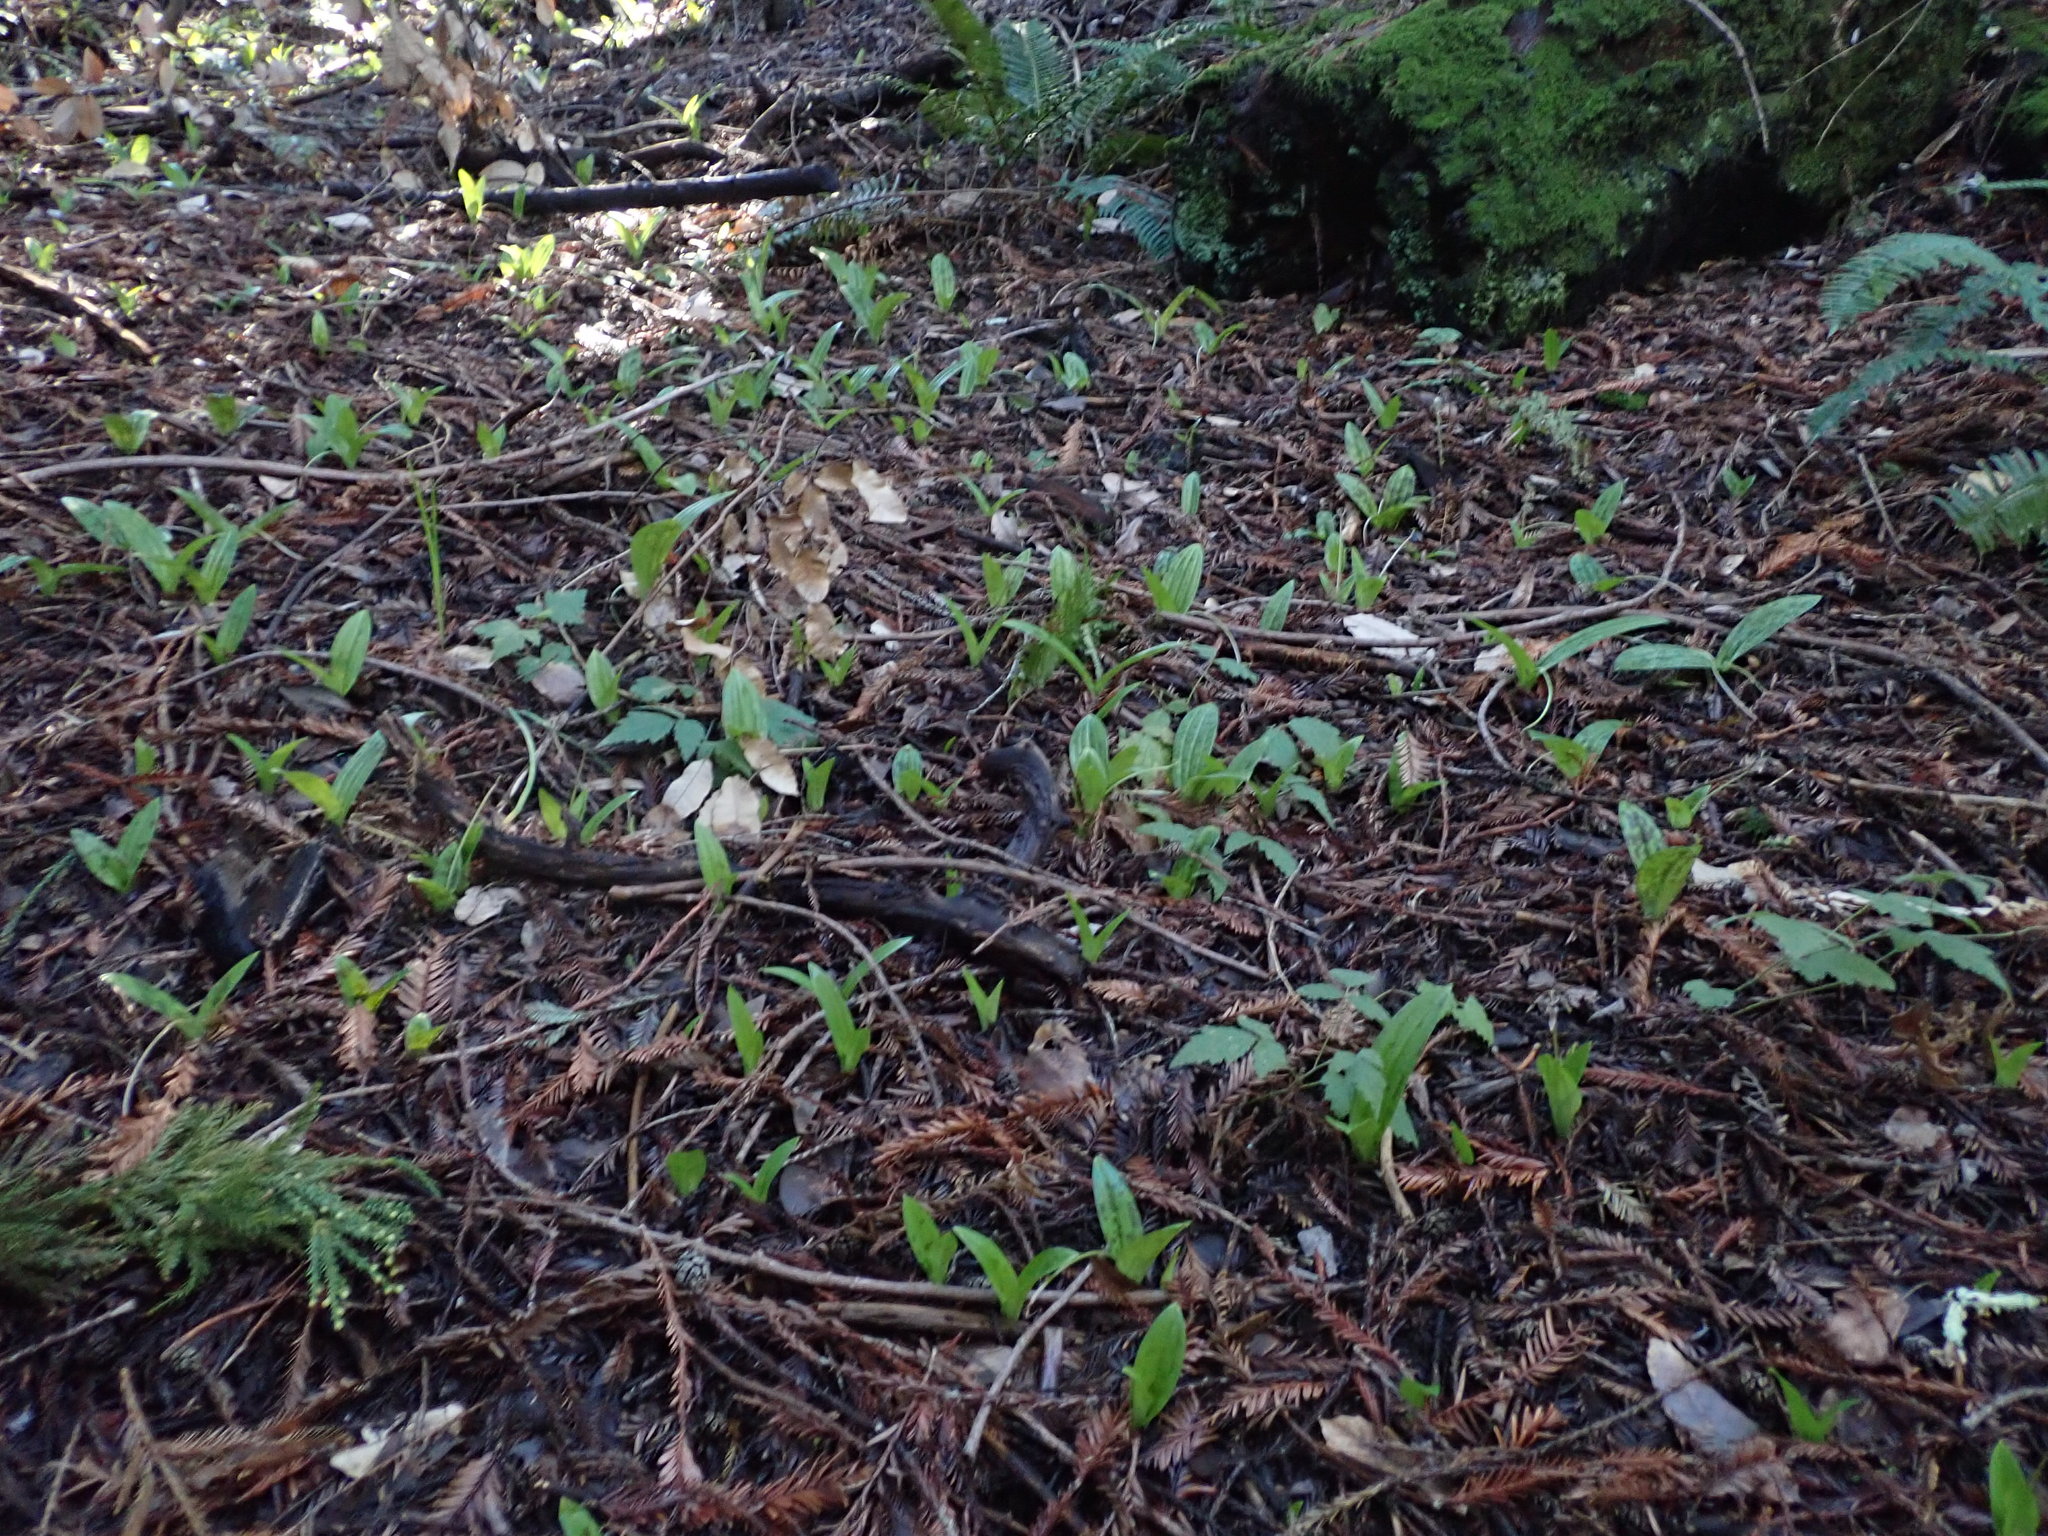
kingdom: Plantae
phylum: Tracheophyta
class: Liliopsida
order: Liliales
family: Liliaceae
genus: Scoliopus
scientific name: Scoliopus bigelovii
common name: Foetid adder's-tongue
